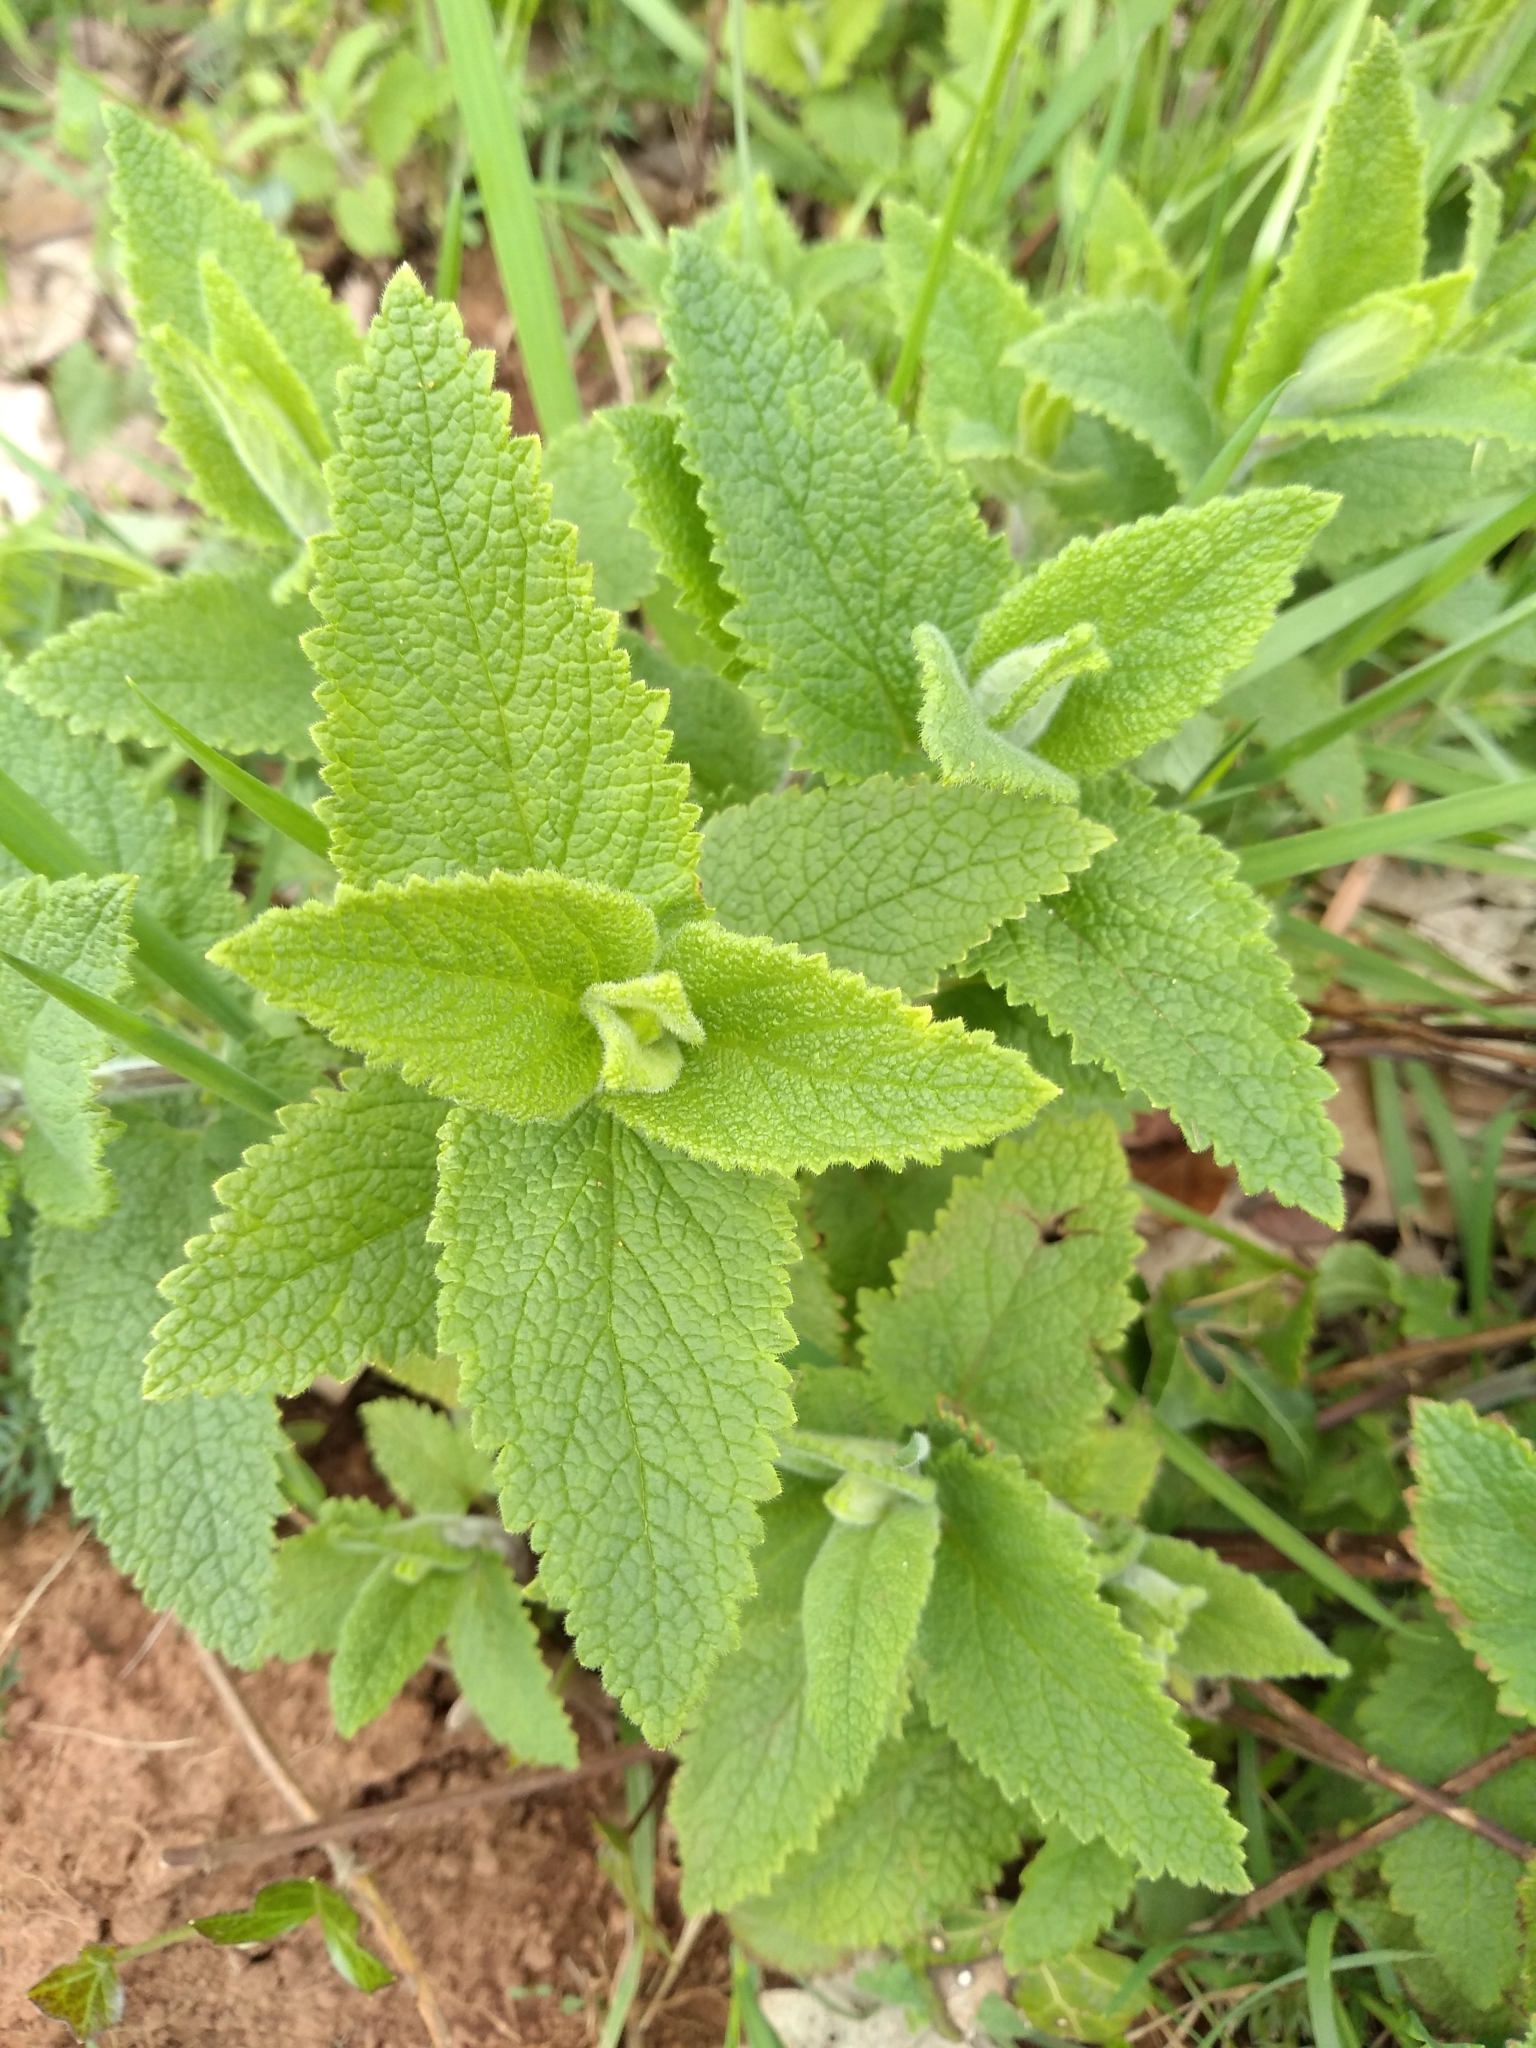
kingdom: Plantae
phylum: Tracheophyta
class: Magnoliopsida
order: Lamiales
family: Lamiaceae
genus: Teucrium
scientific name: Teucrium scorodonia
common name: Woodland germander
